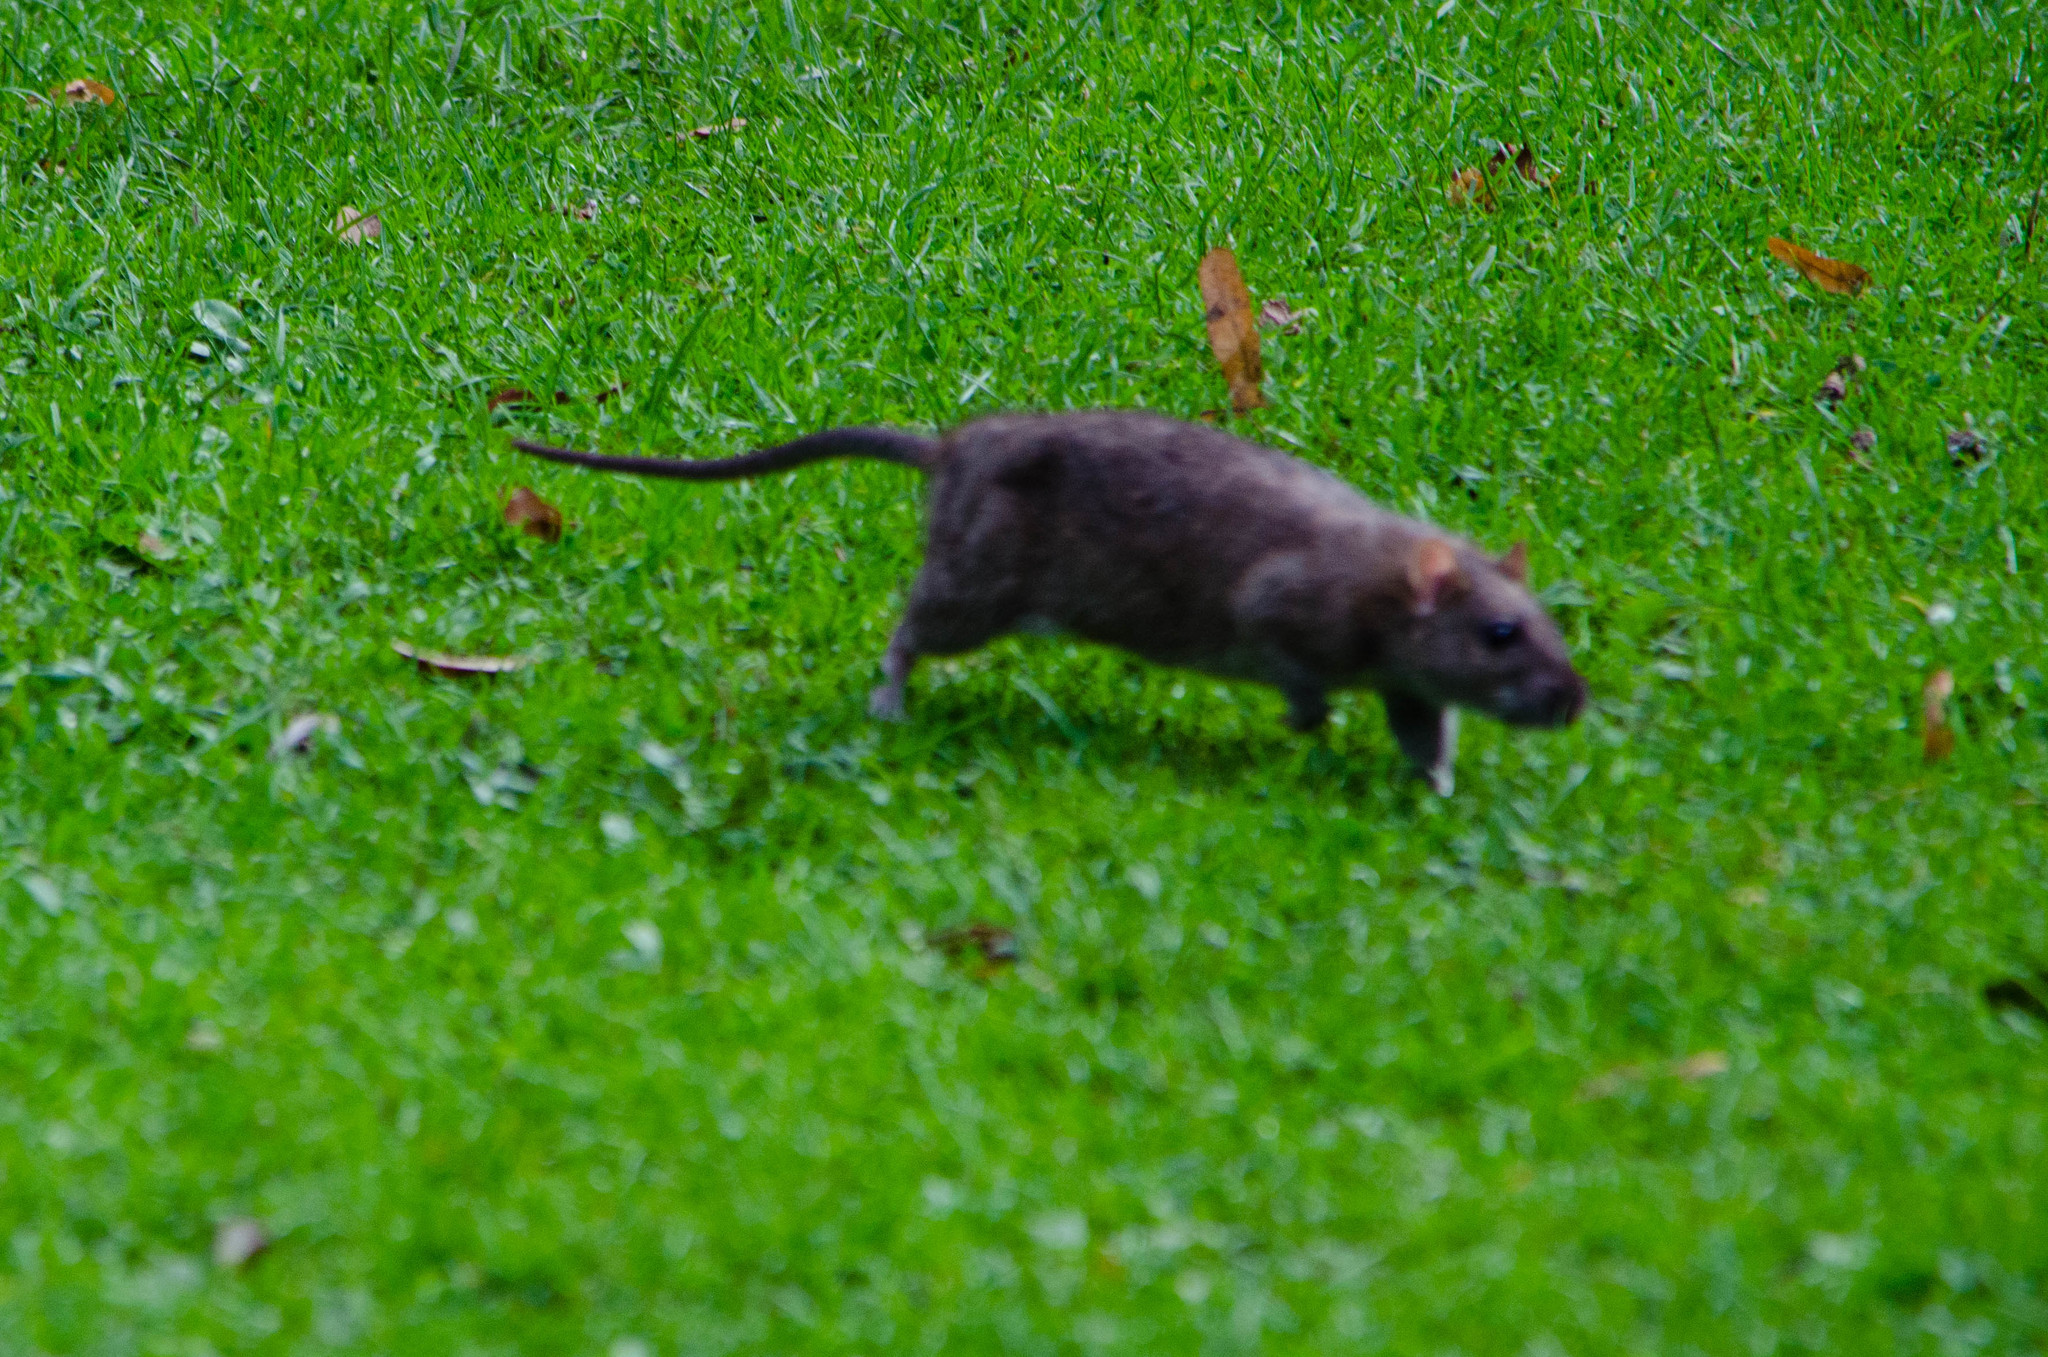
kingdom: Animalia
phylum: Chordata
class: Mammalia
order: Rodentia
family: Muridae
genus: Rattus
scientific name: Rattus norvegicus
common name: Brown rat
